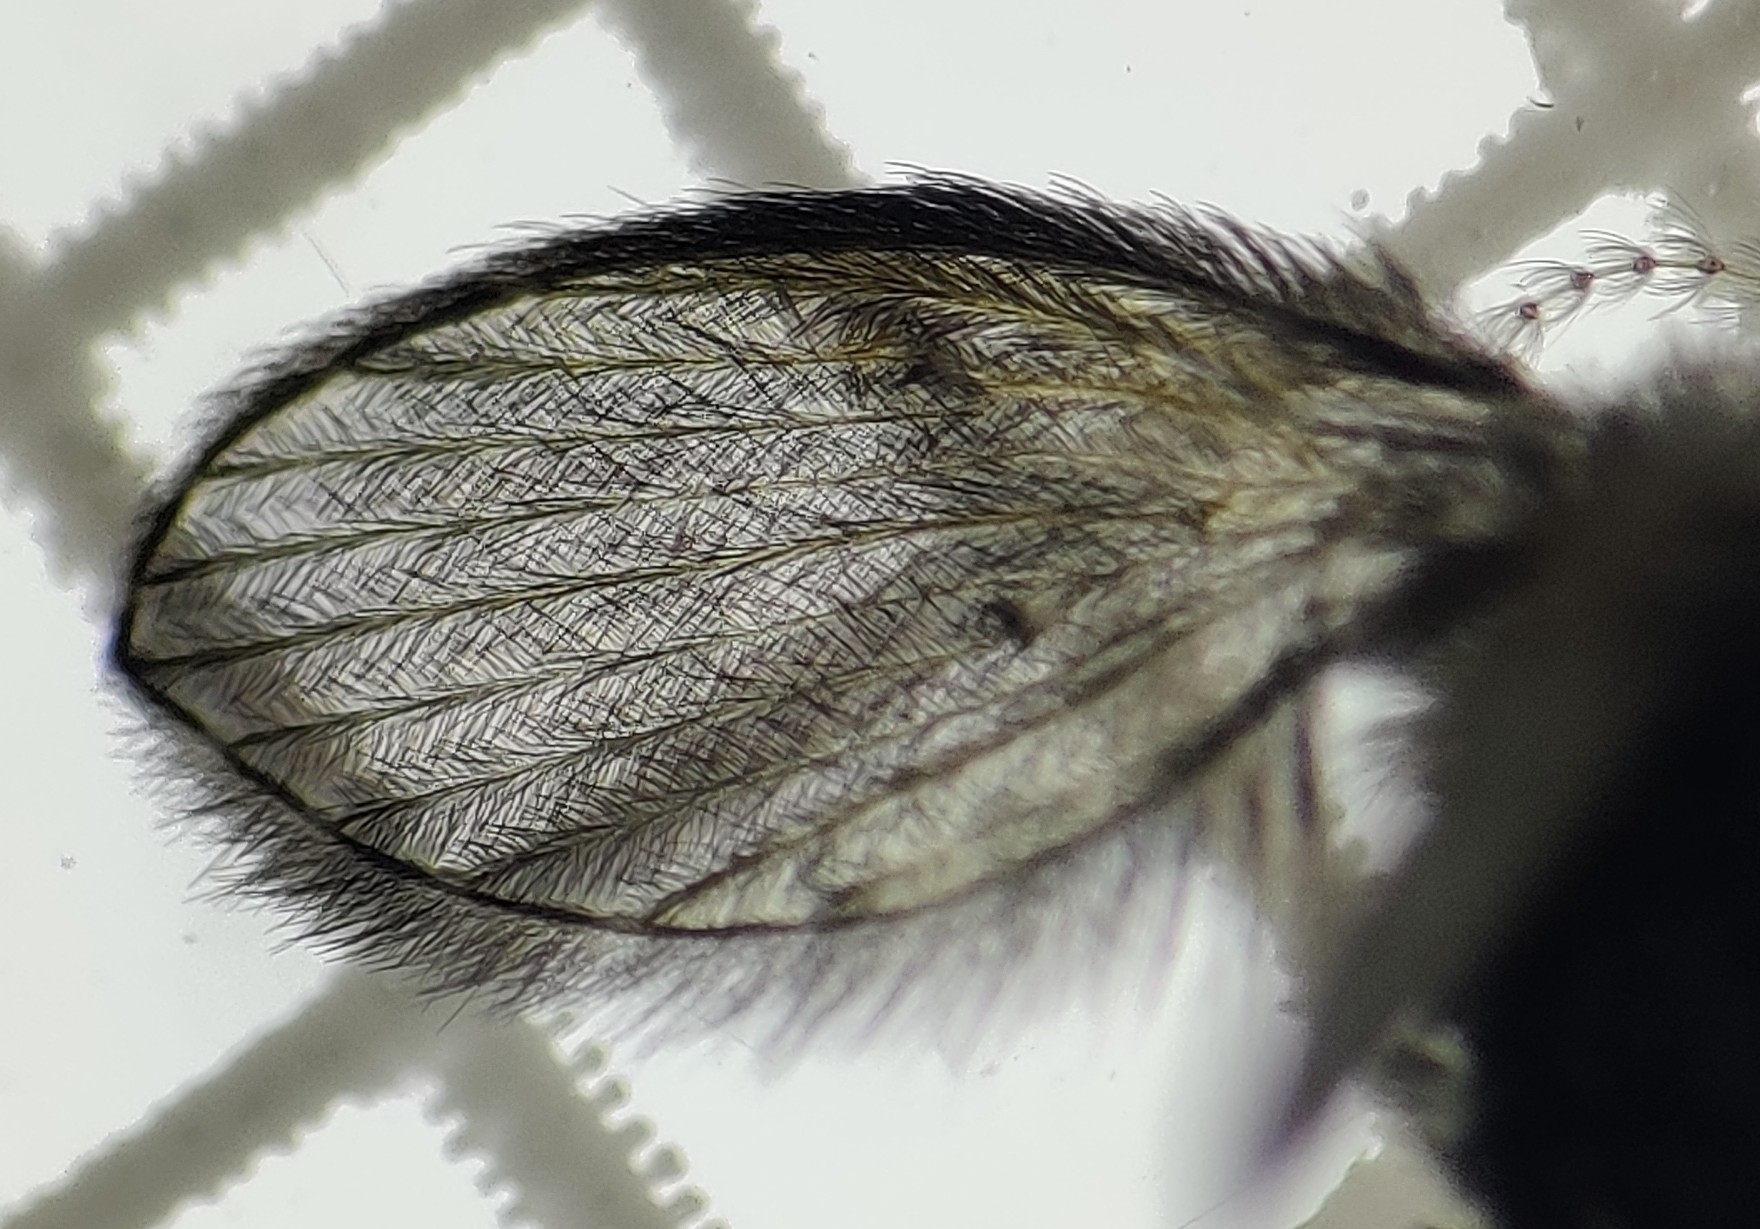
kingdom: Animalia
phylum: Arthropoda
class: Insecta
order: Diptera
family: Psychodidae
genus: Clogmia
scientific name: Clogmia albipunctatus
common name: White-spotted moth fly
